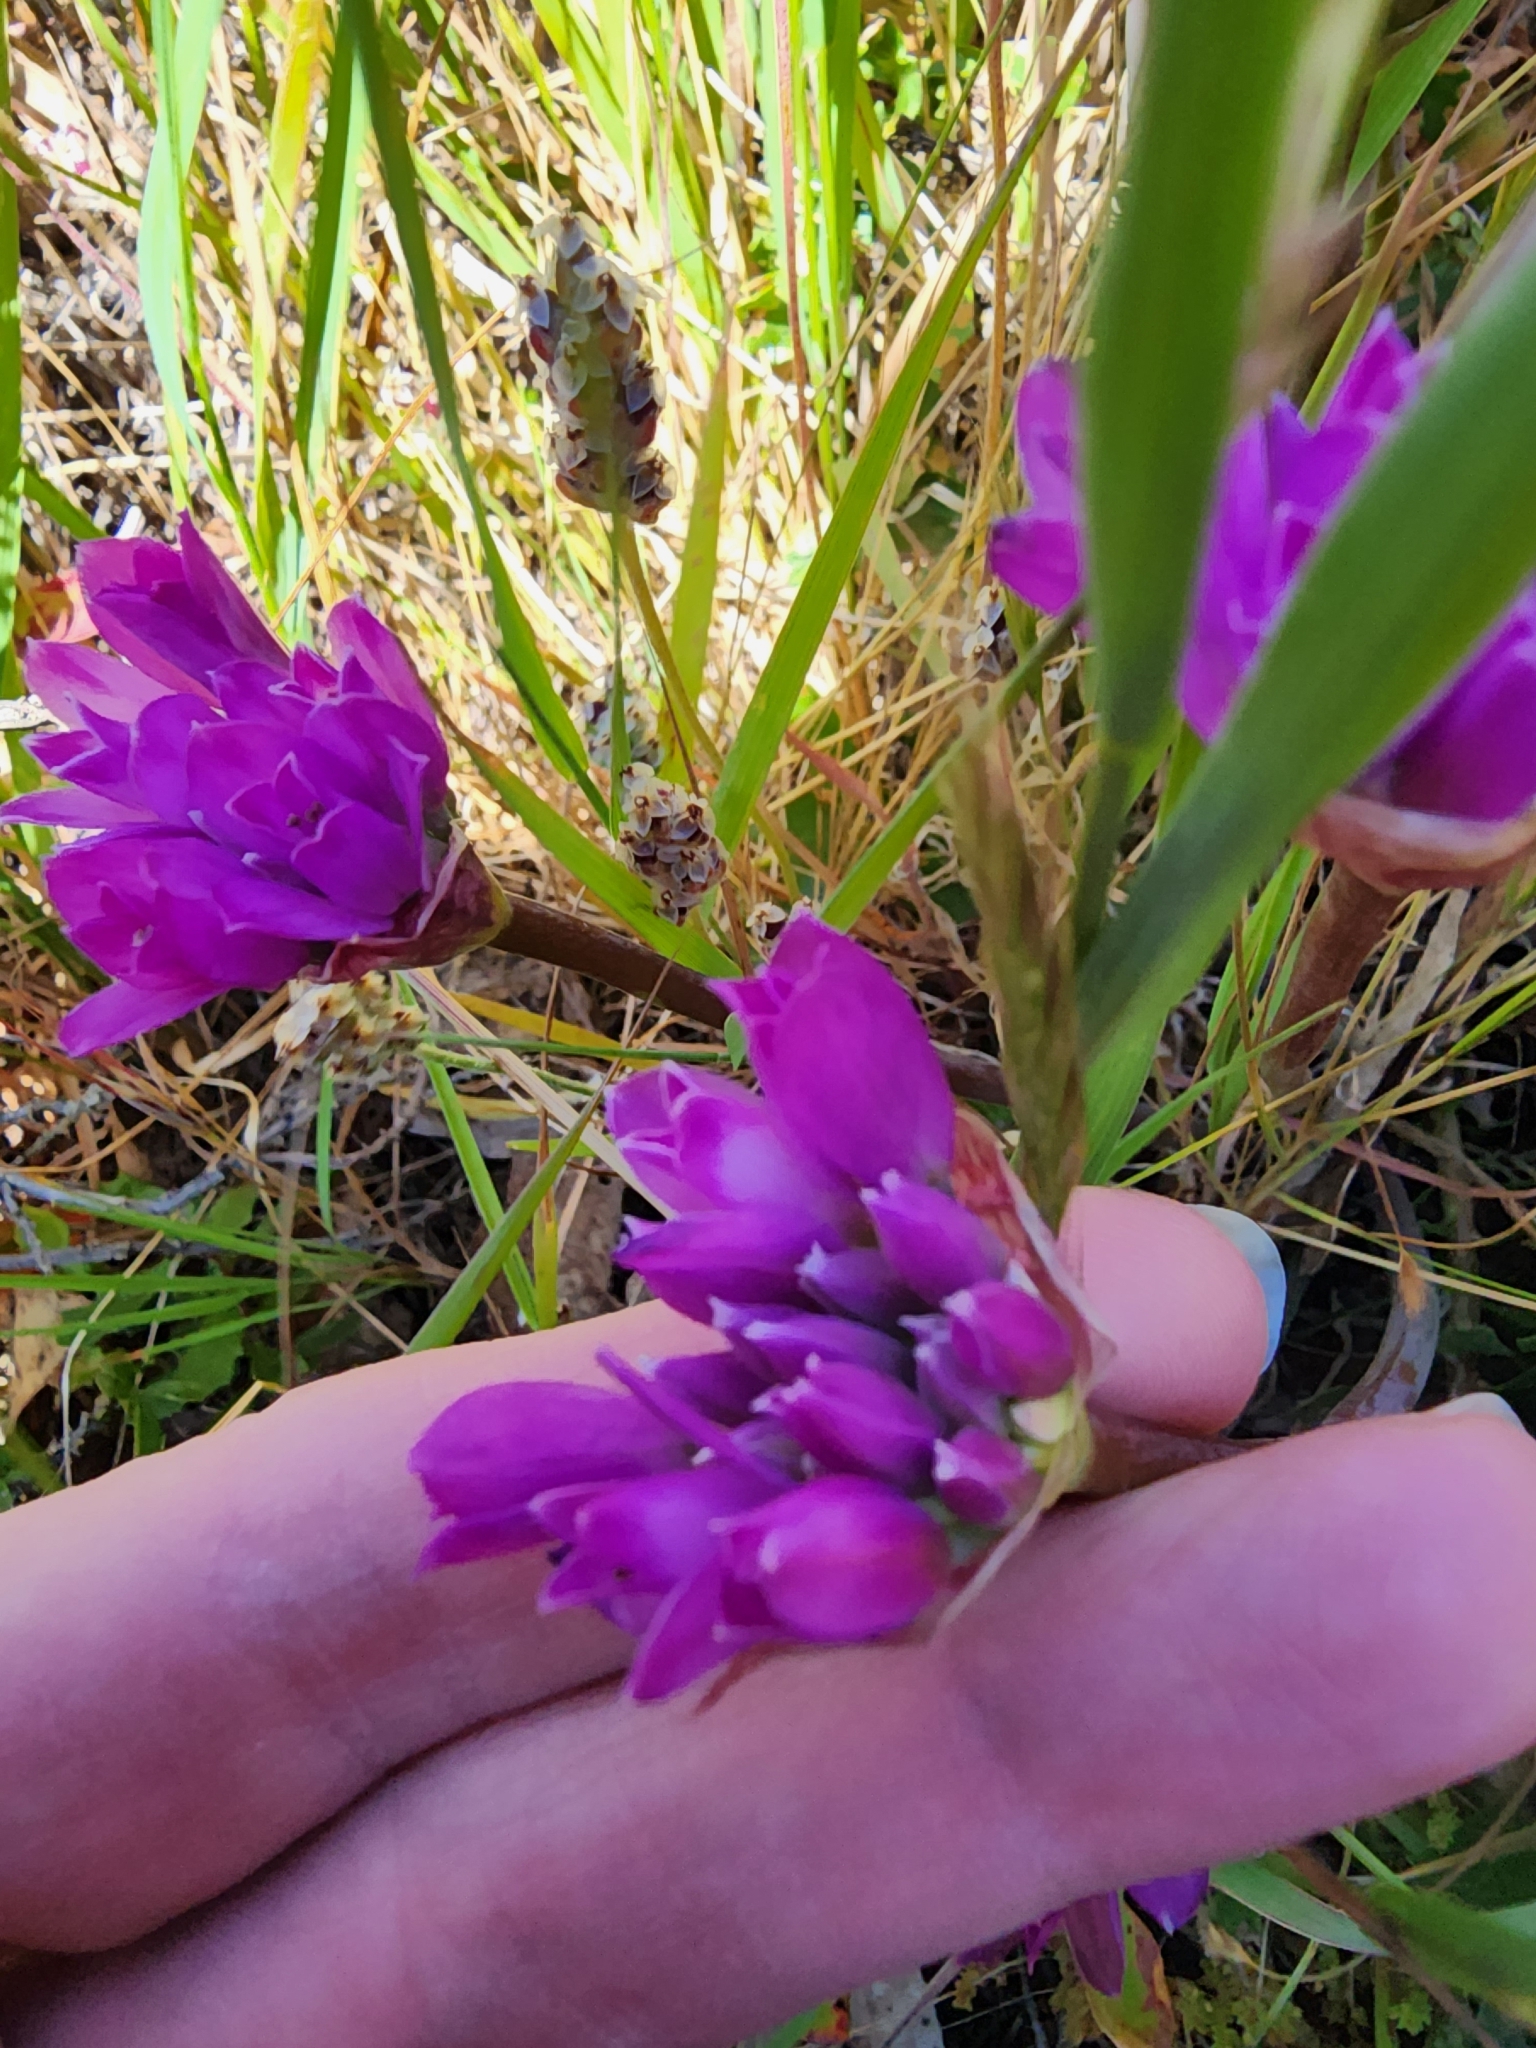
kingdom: Plantae
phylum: Tracheophyta
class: Liliopsida
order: Asparagales
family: Amaryllidaceae
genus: Allium
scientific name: Allium dichlamydeum
